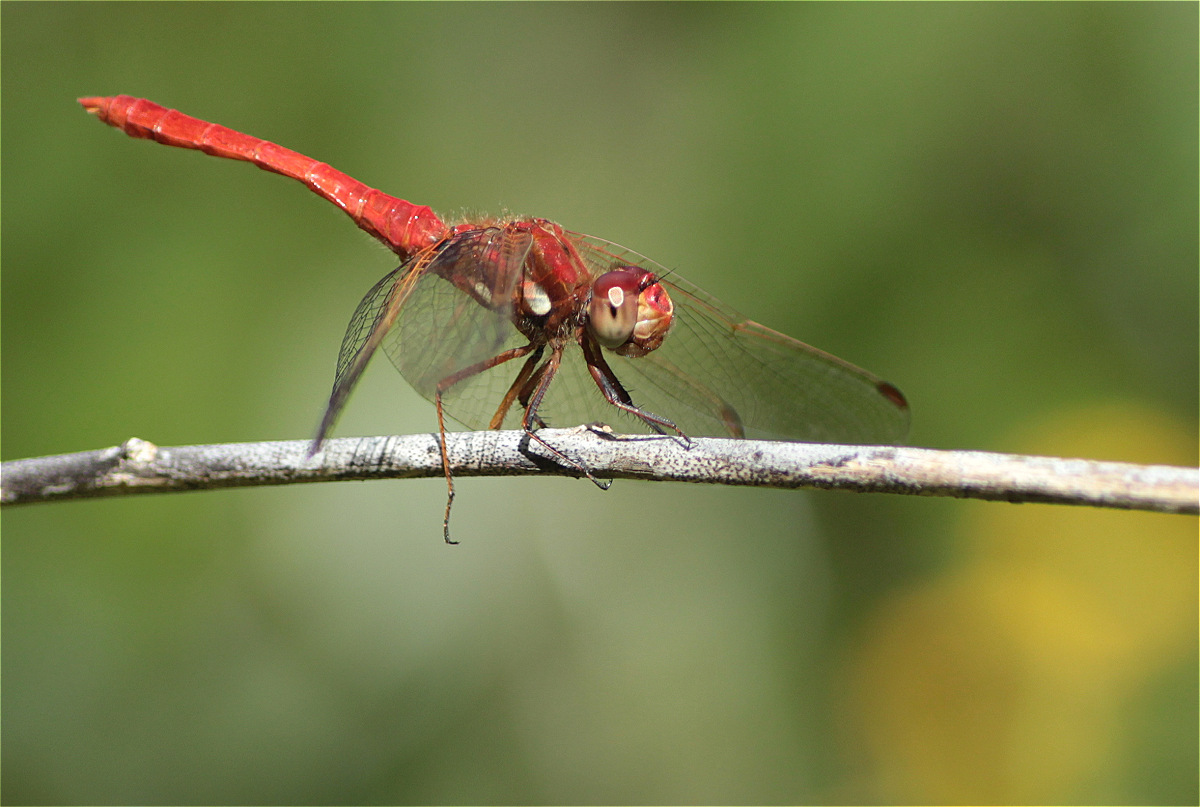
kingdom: Animalia
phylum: Arthropoda
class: Insecta
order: Odonata
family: Libellulidae
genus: Sympetrum
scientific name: Sympetrum gilvum
